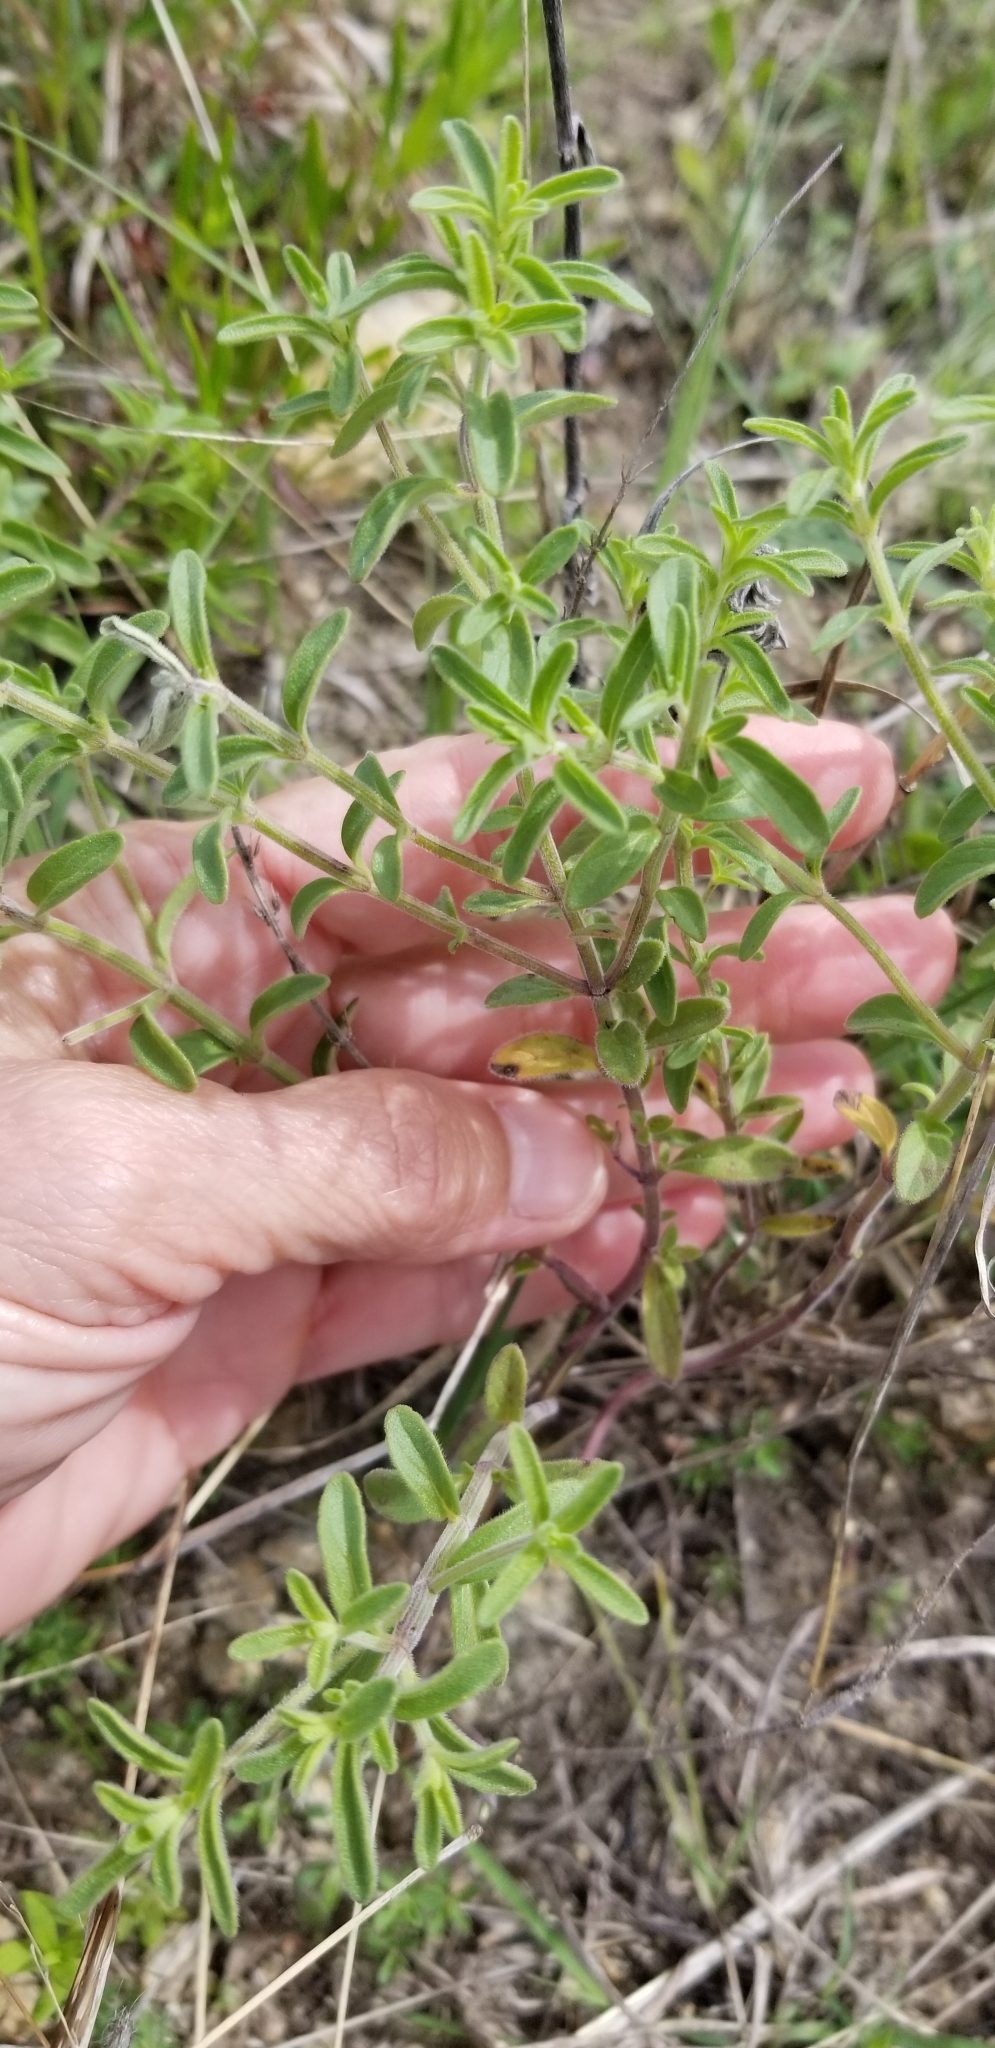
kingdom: Plantae
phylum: Tracheophyta
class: Magnoliopsida
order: Lamiales
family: Lamiaceae
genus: Hedeoma
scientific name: Hedeoma drummondii
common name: New mexico pennyroyal
